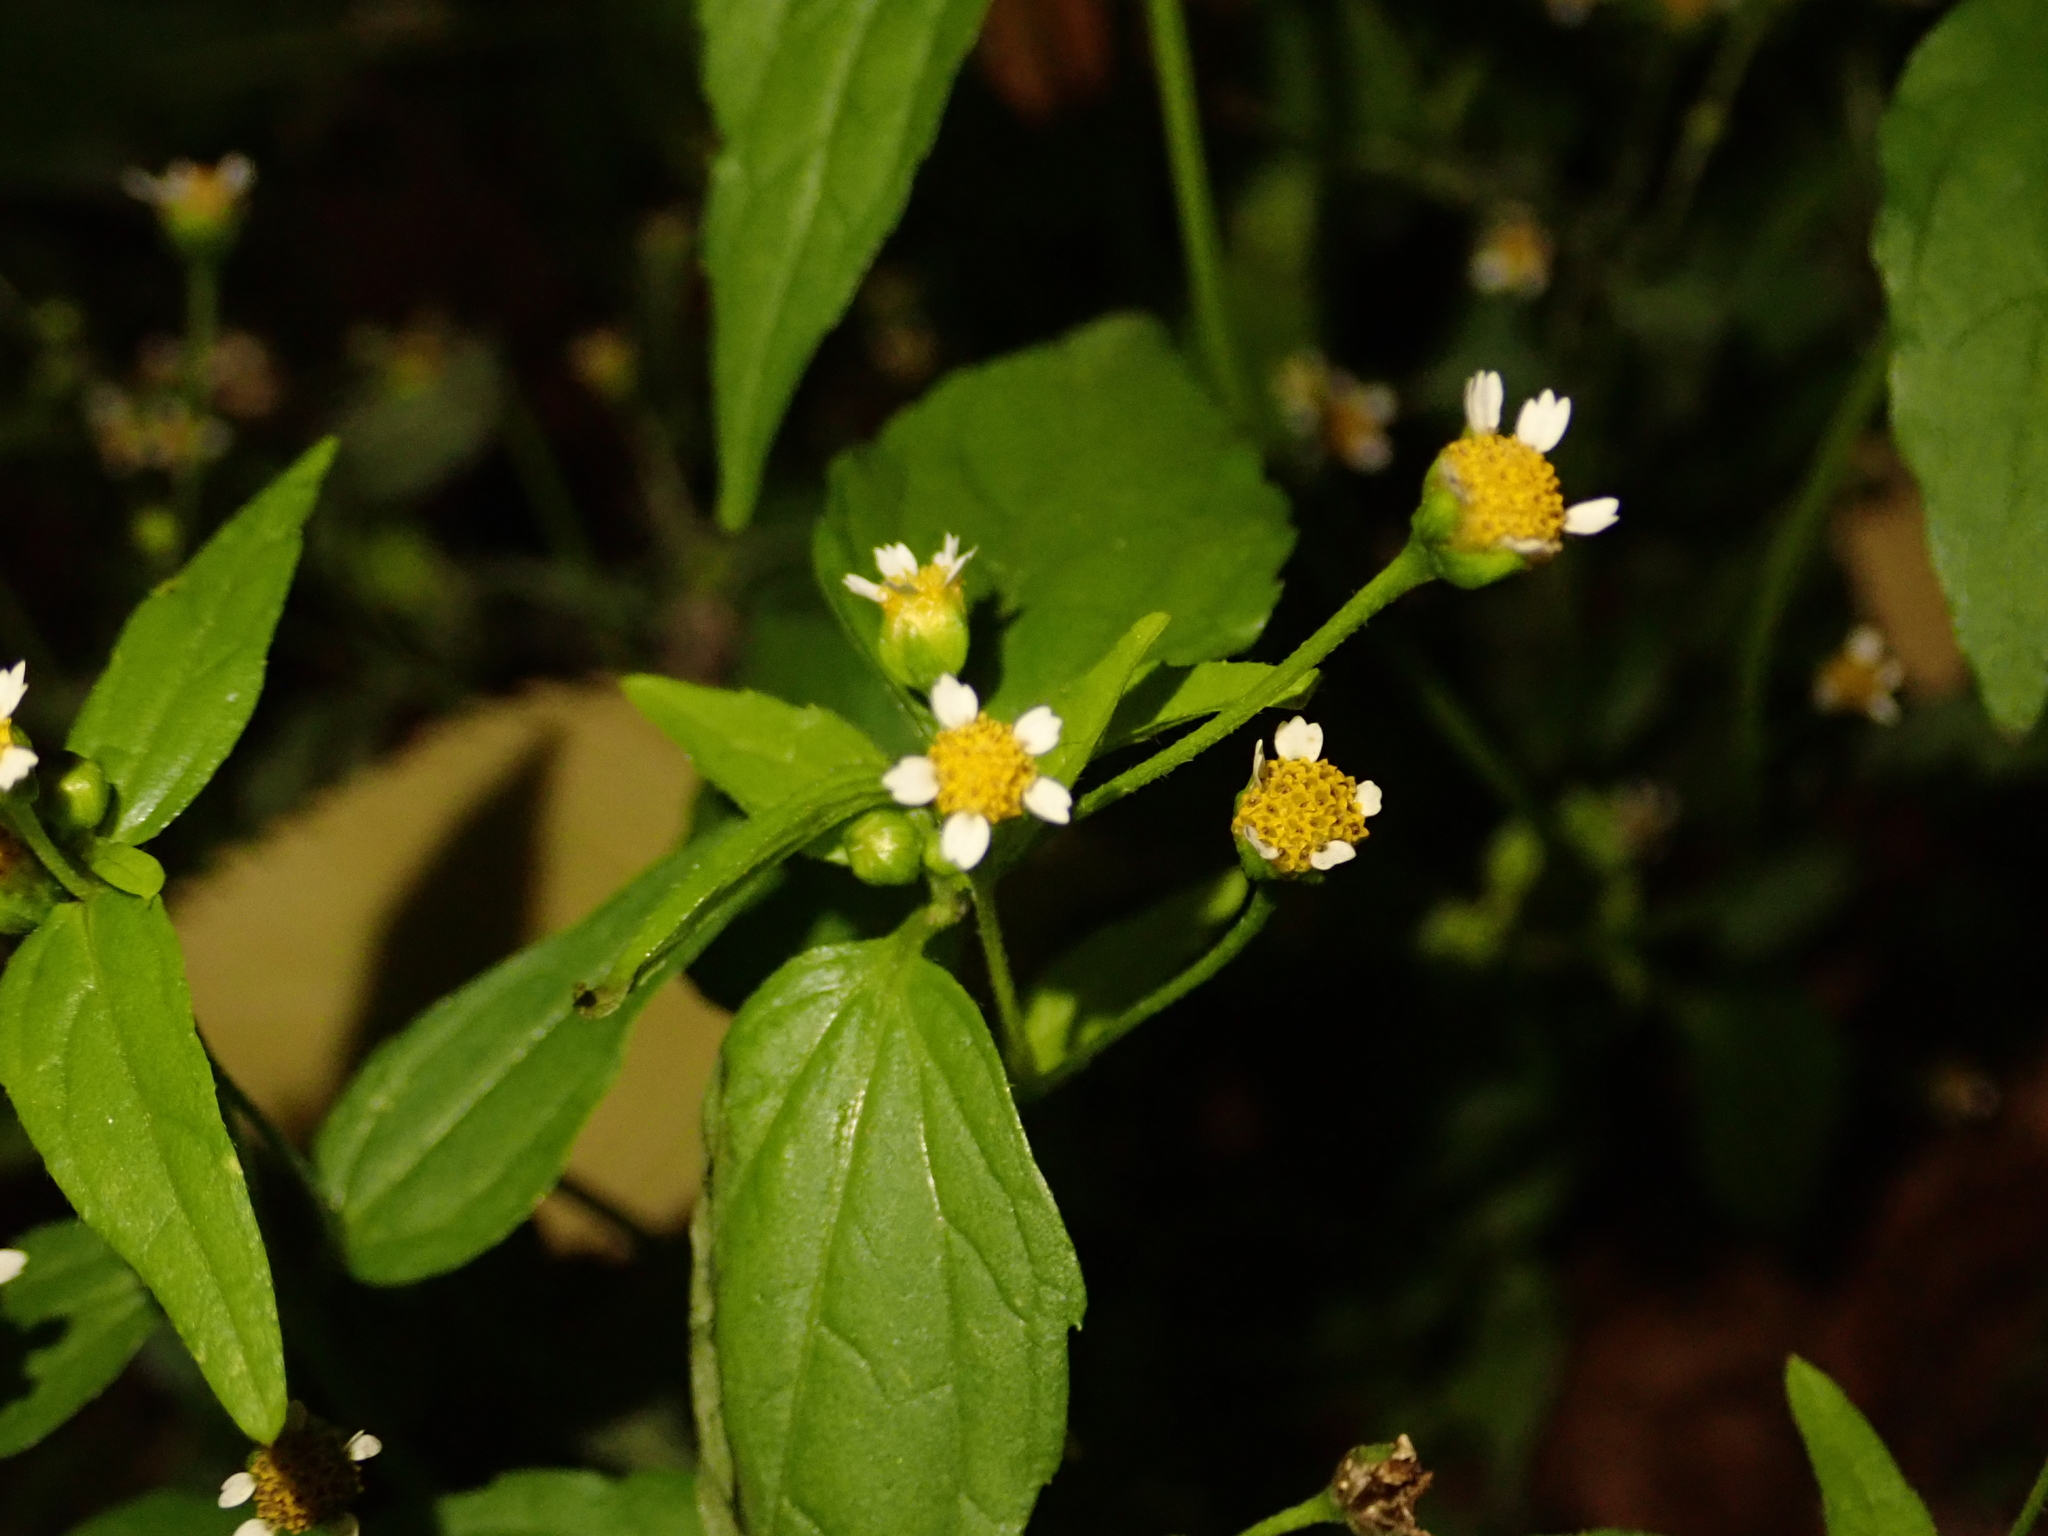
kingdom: Plantae
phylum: Tracheophyta
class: Magnoliopsida
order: Asterales
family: Asteraceae
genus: Galinsoga
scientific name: Galinsoga parviflora
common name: Gallant soldier
